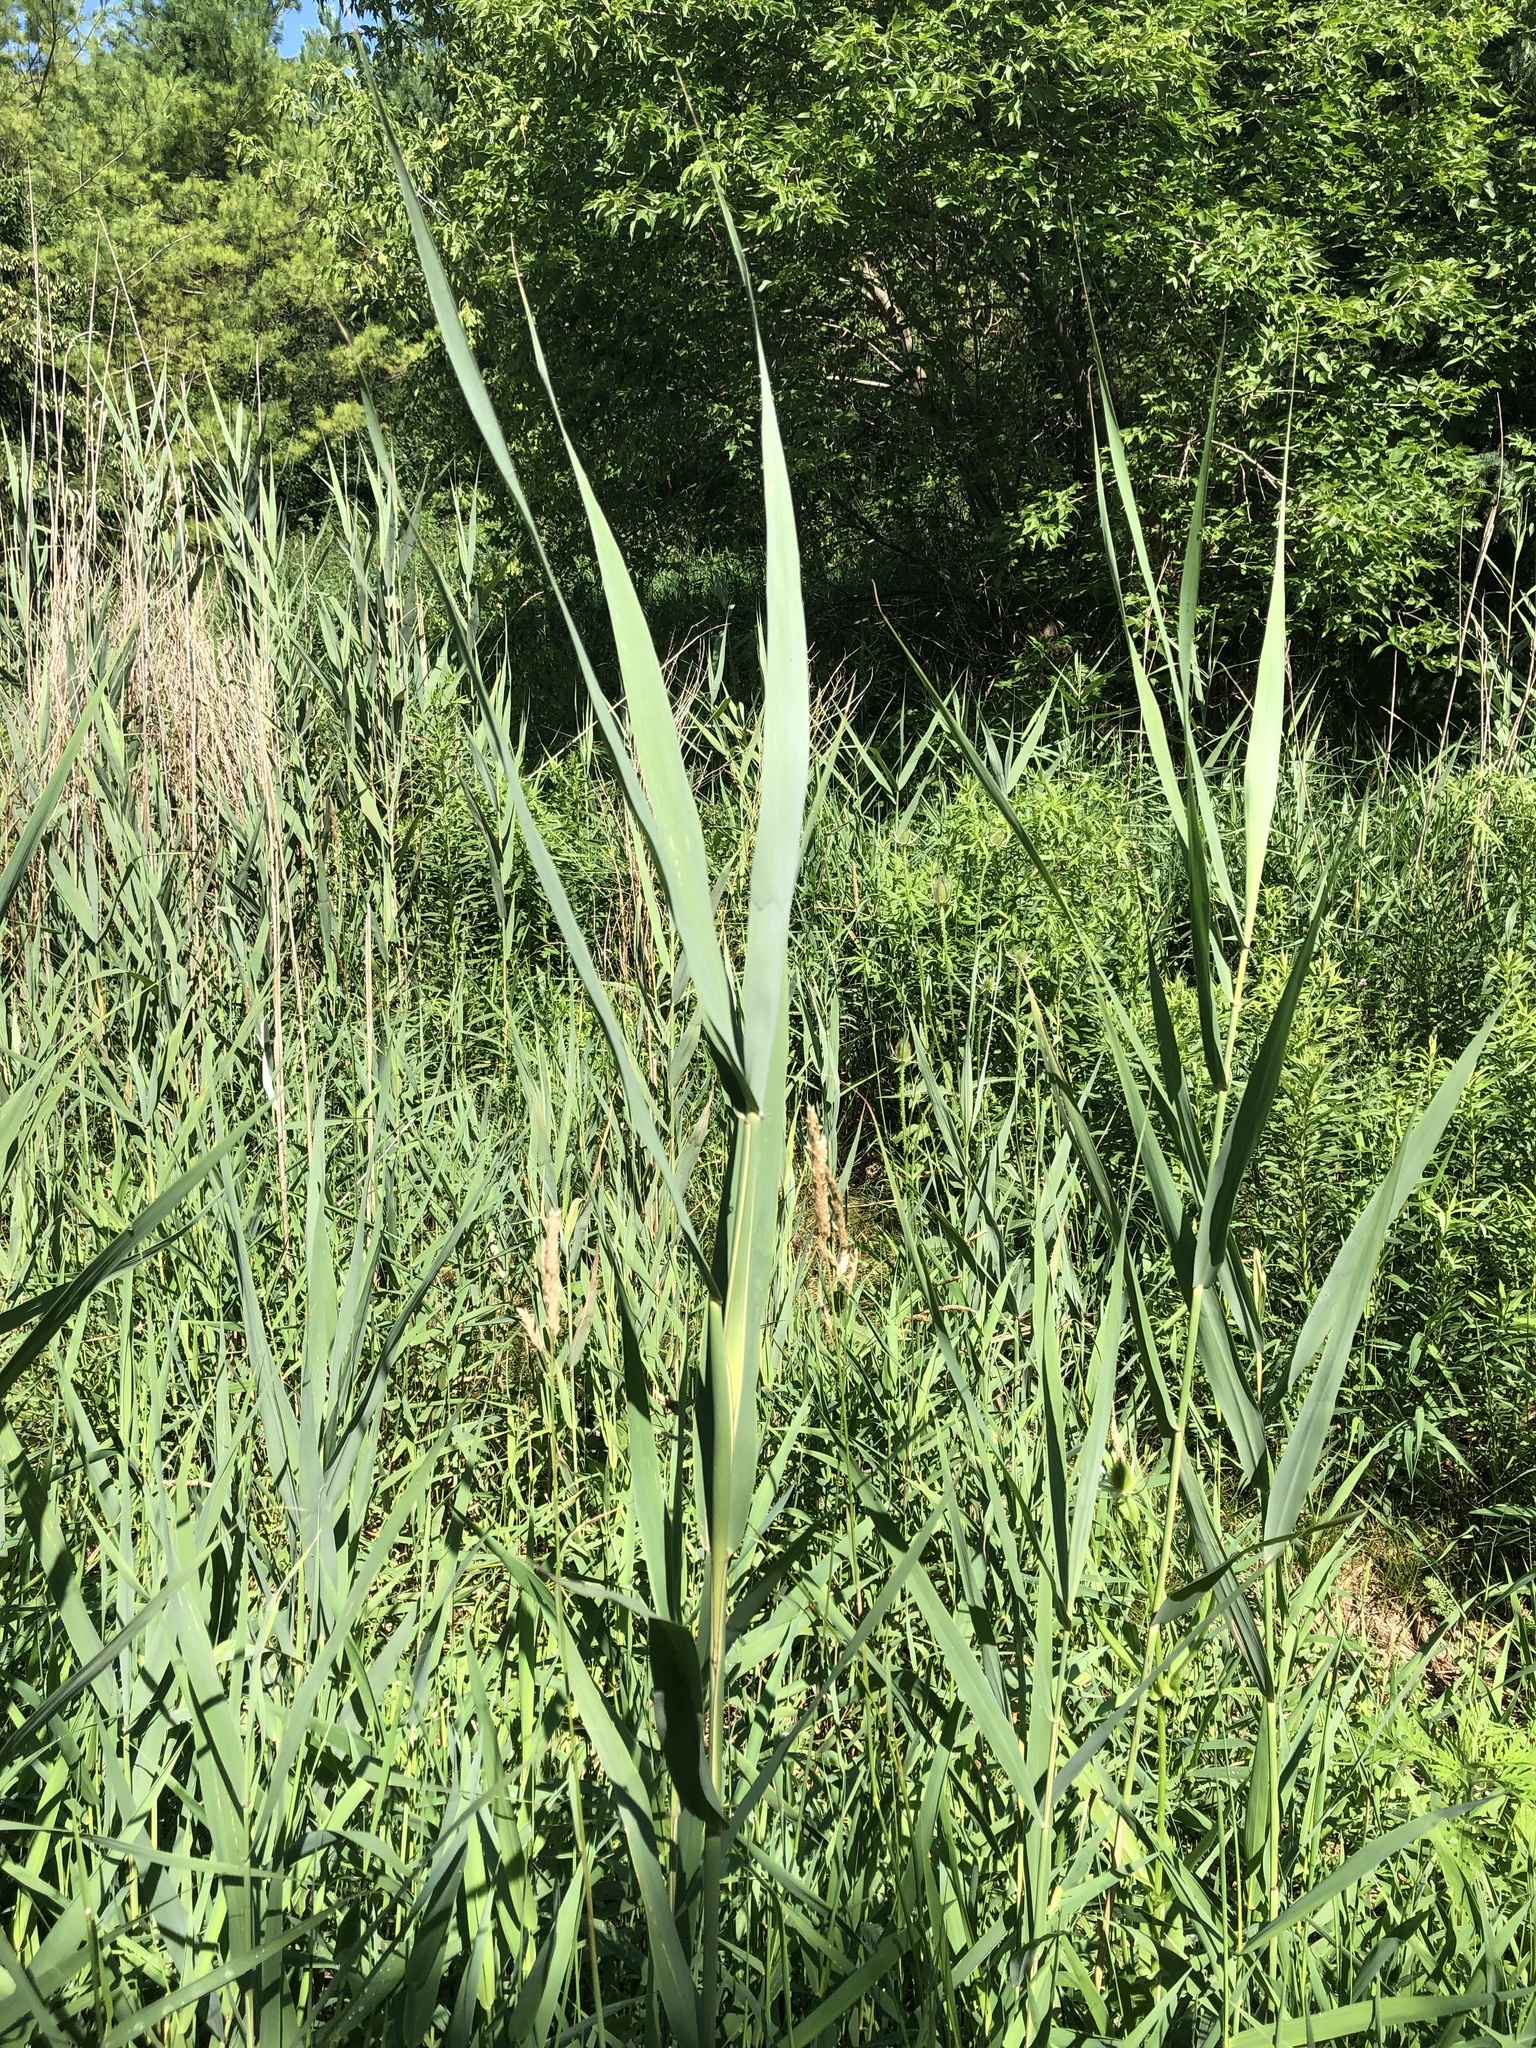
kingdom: Plantae
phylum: Tracheophyta
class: Liliopsida
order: Poales
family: Poaceae
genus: Phragmites
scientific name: Phragmites australis
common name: Common reed
